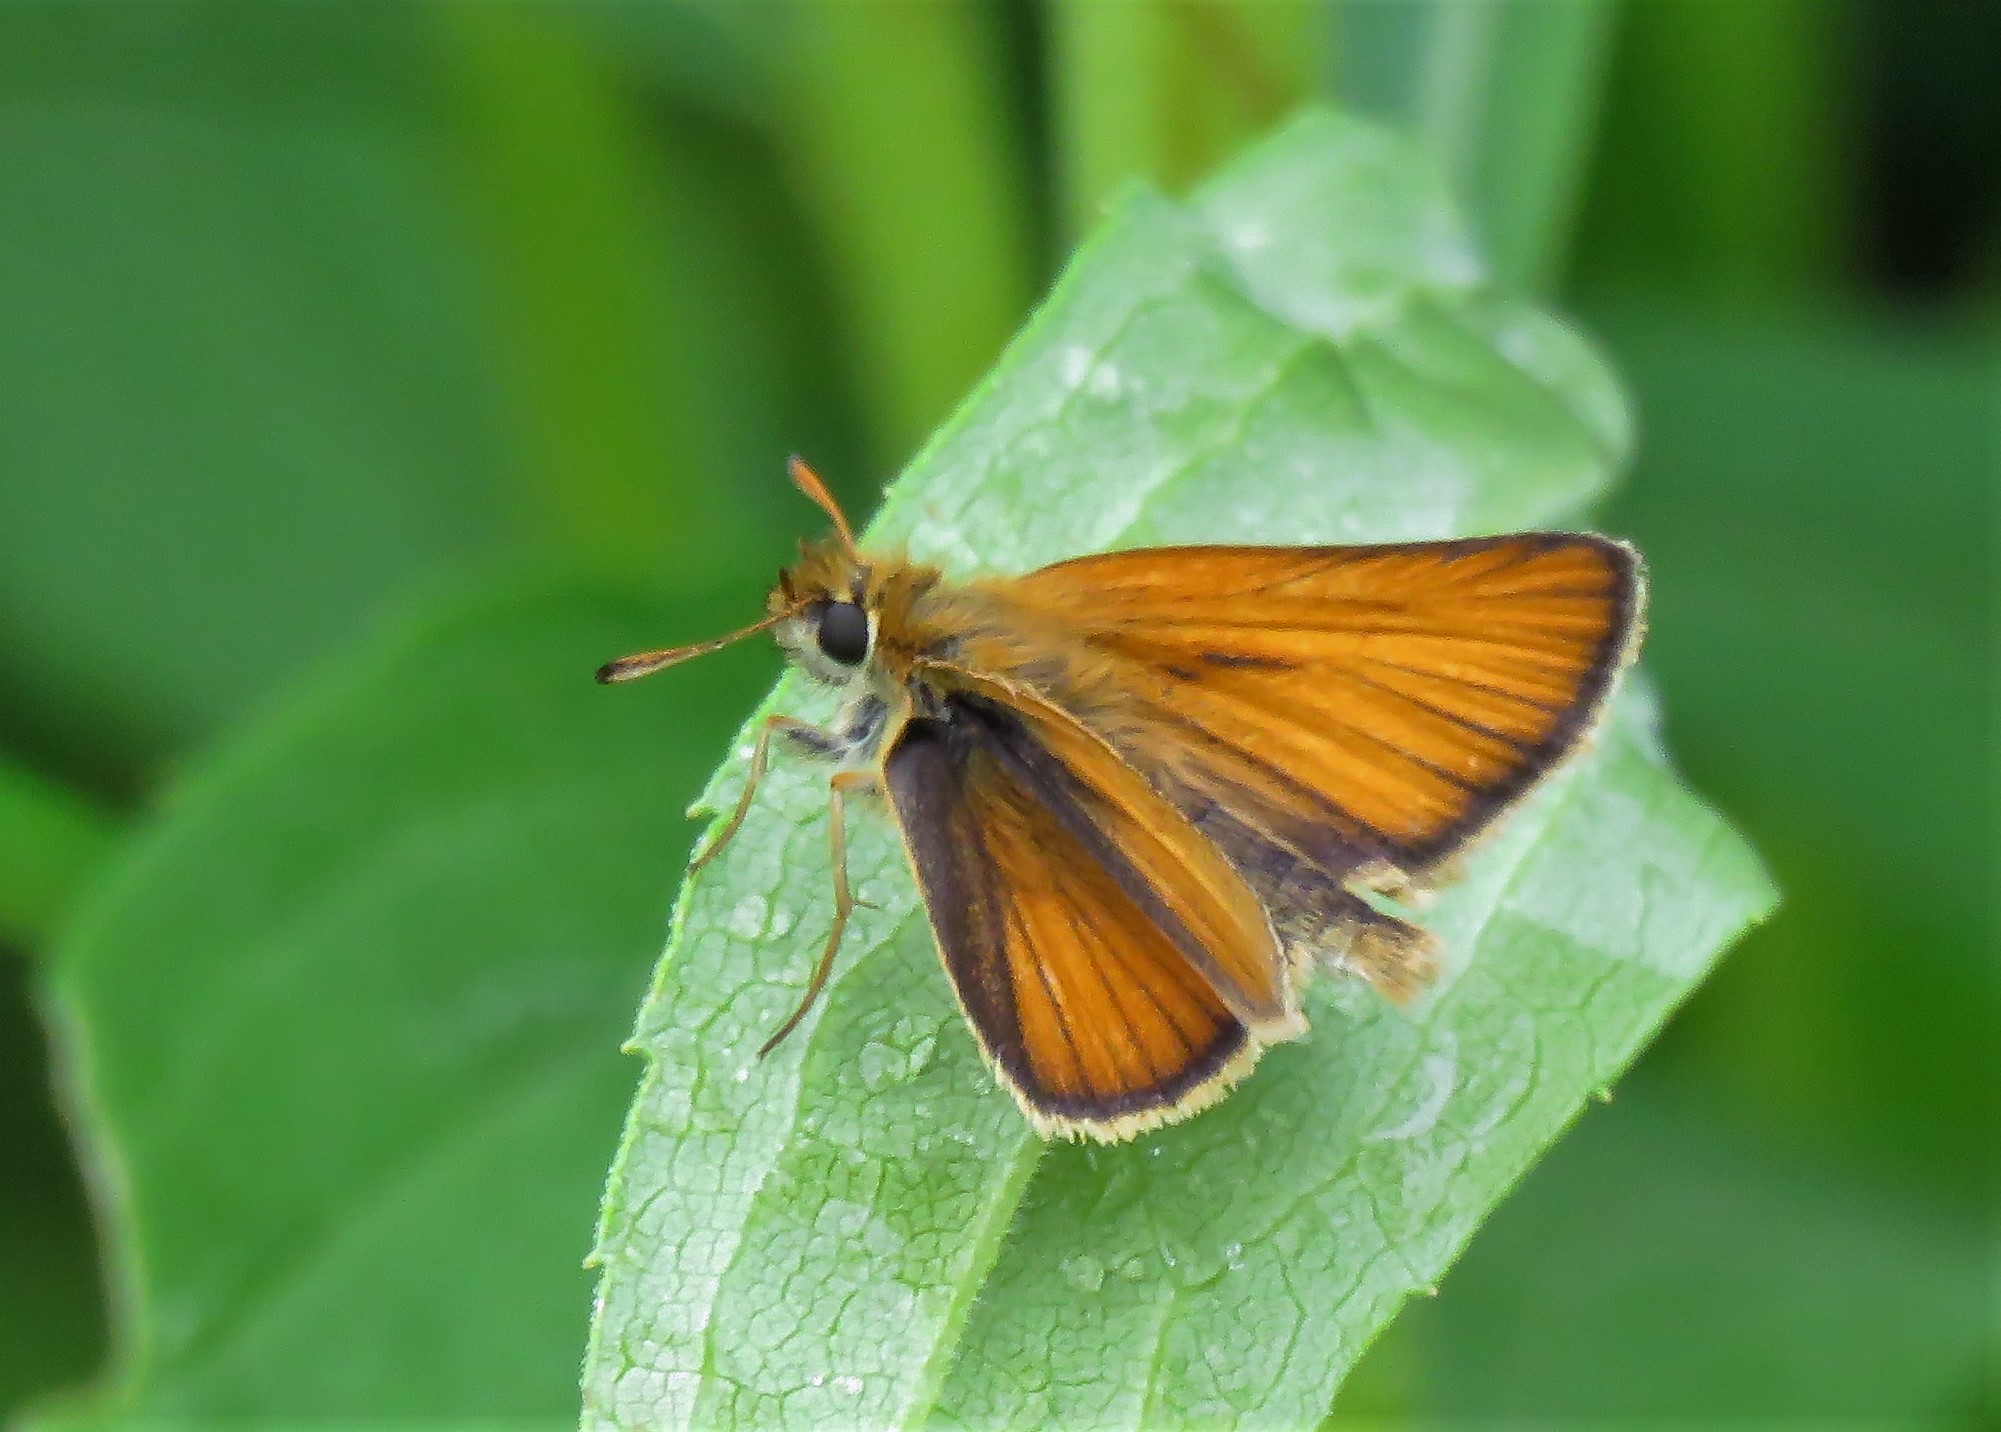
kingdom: Animalia
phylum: Arthropoda
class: Insecta
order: Lepidoptera
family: Hesperiidae
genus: Thymelicus
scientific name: Thymelicus lineola
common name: Essex skipper
